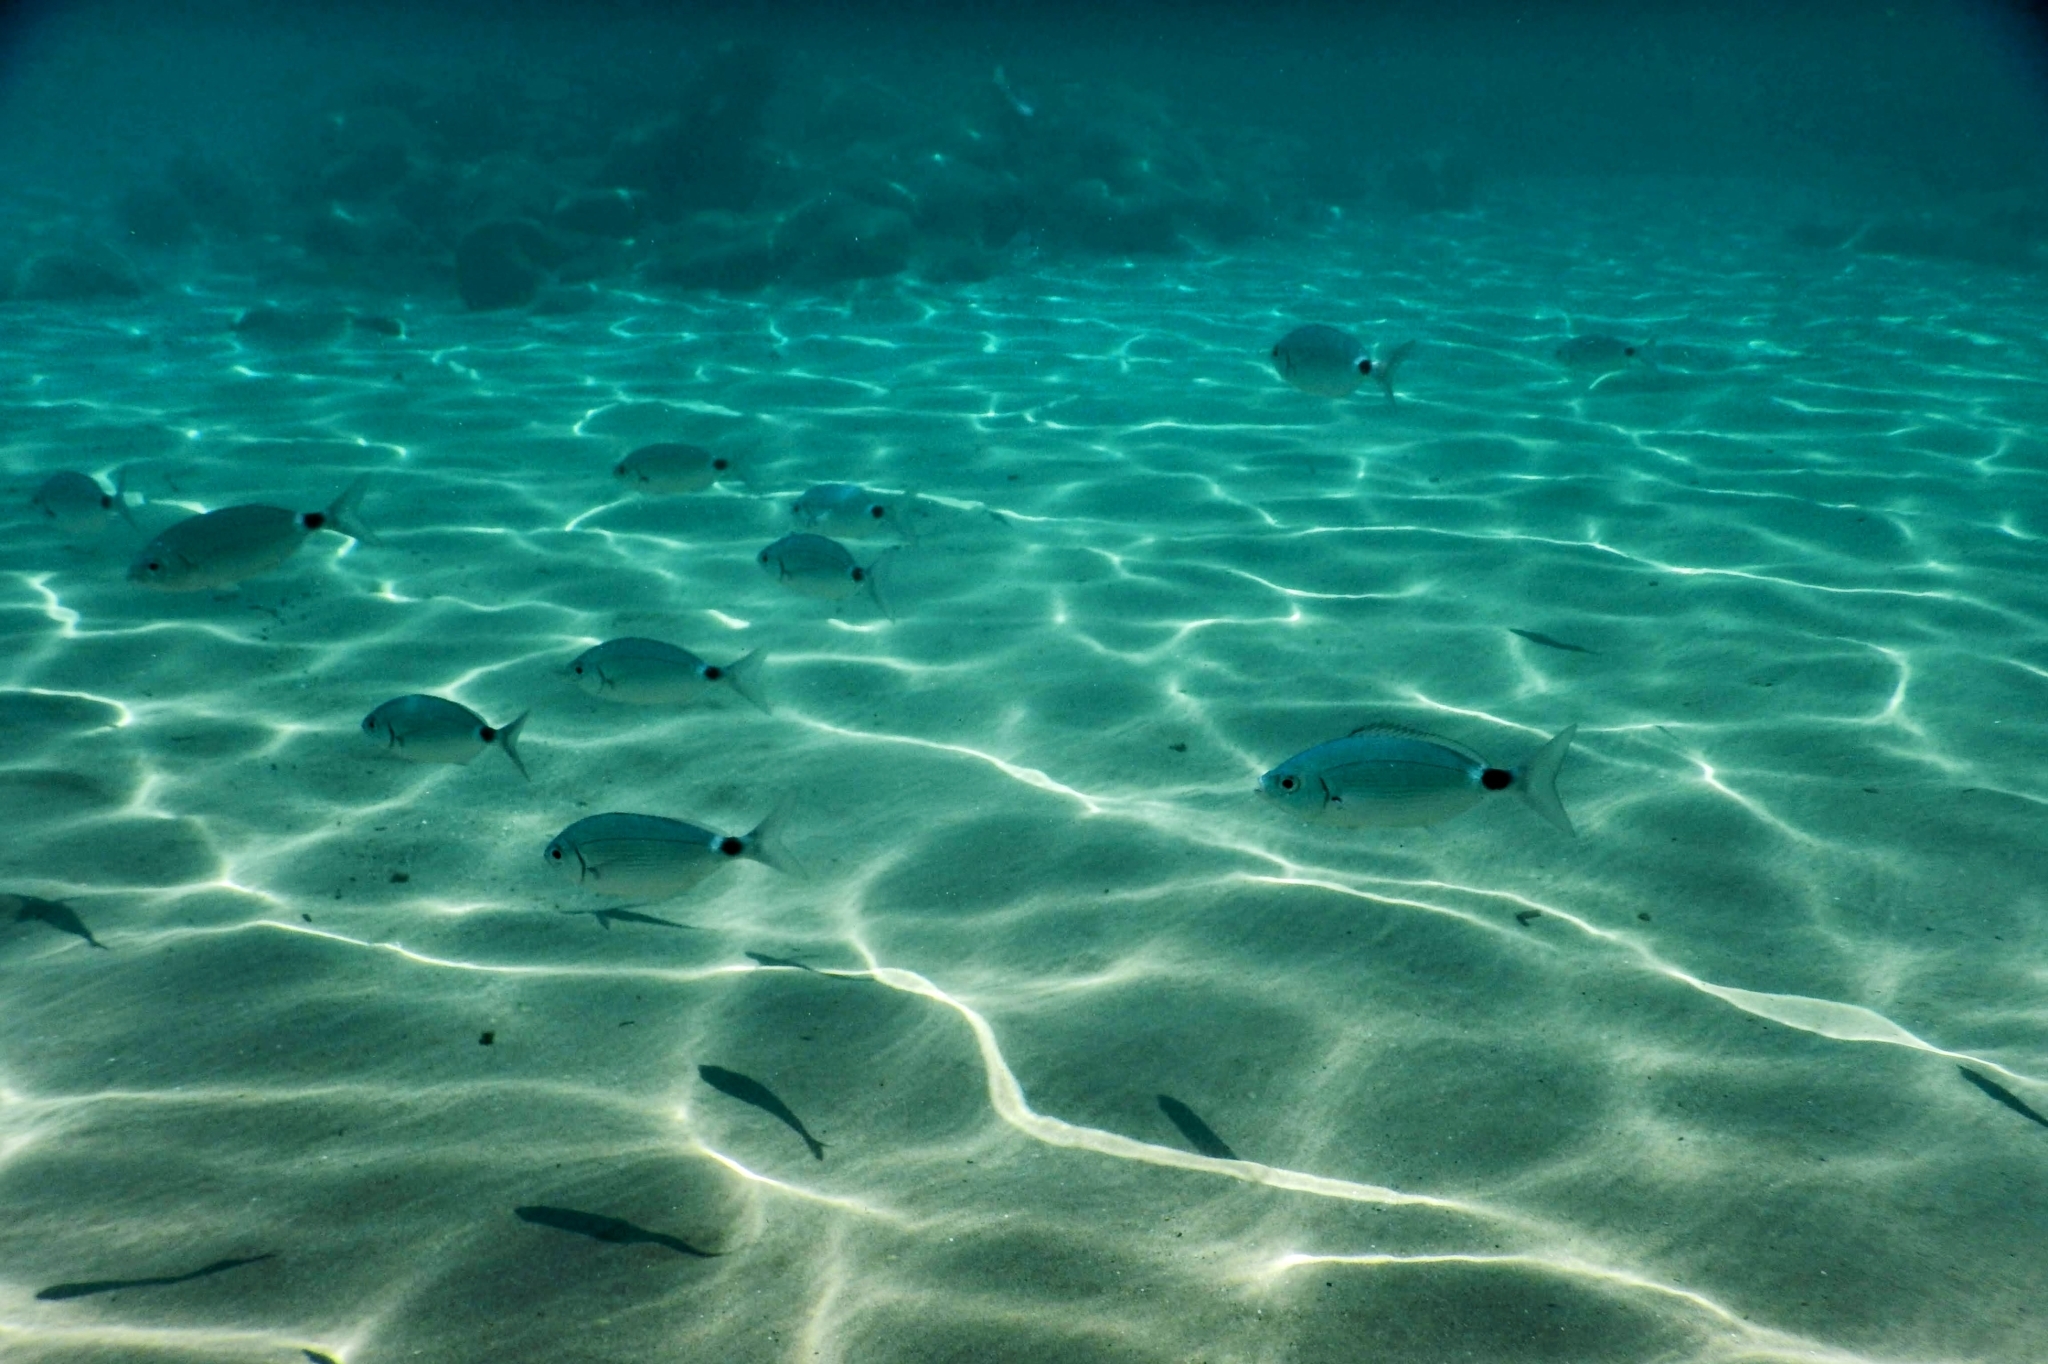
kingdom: Animalia
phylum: Chordata
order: Perciformes
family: Sparidae
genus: Oblada
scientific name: Oblada melanura
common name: Saddled seabream
